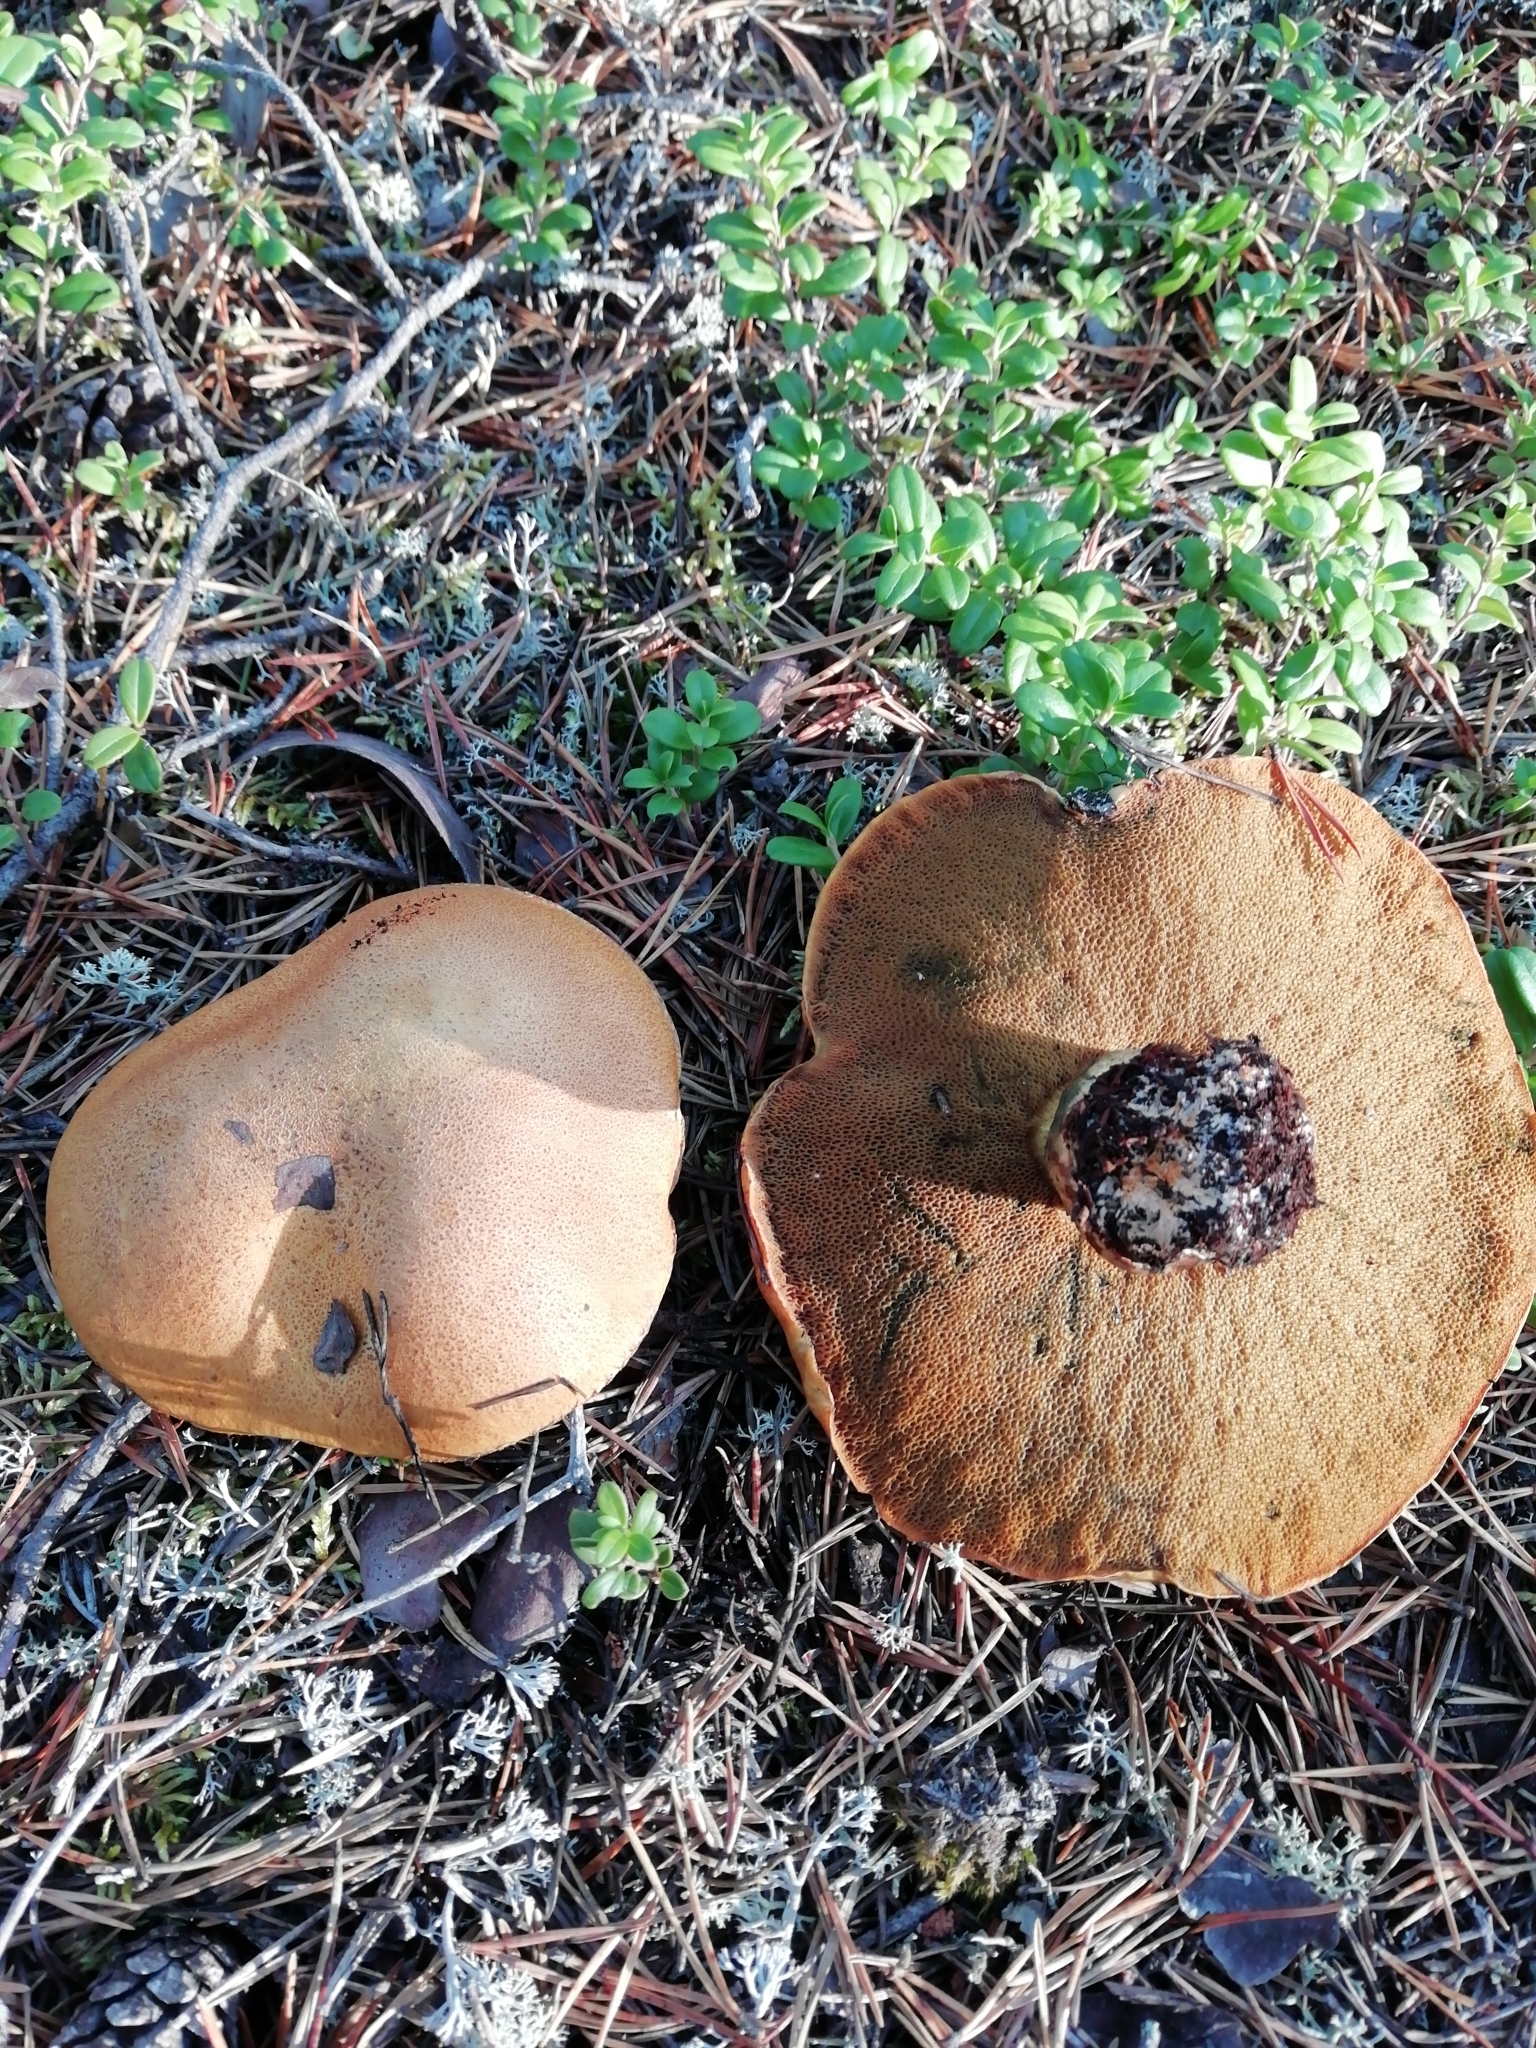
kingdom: Fungi
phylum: Basidiomycota
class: Agaricomycetes
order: Boletales
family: Suillaceae
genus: Suillus
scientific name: Suillus variegatus
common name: Velvet bolete
